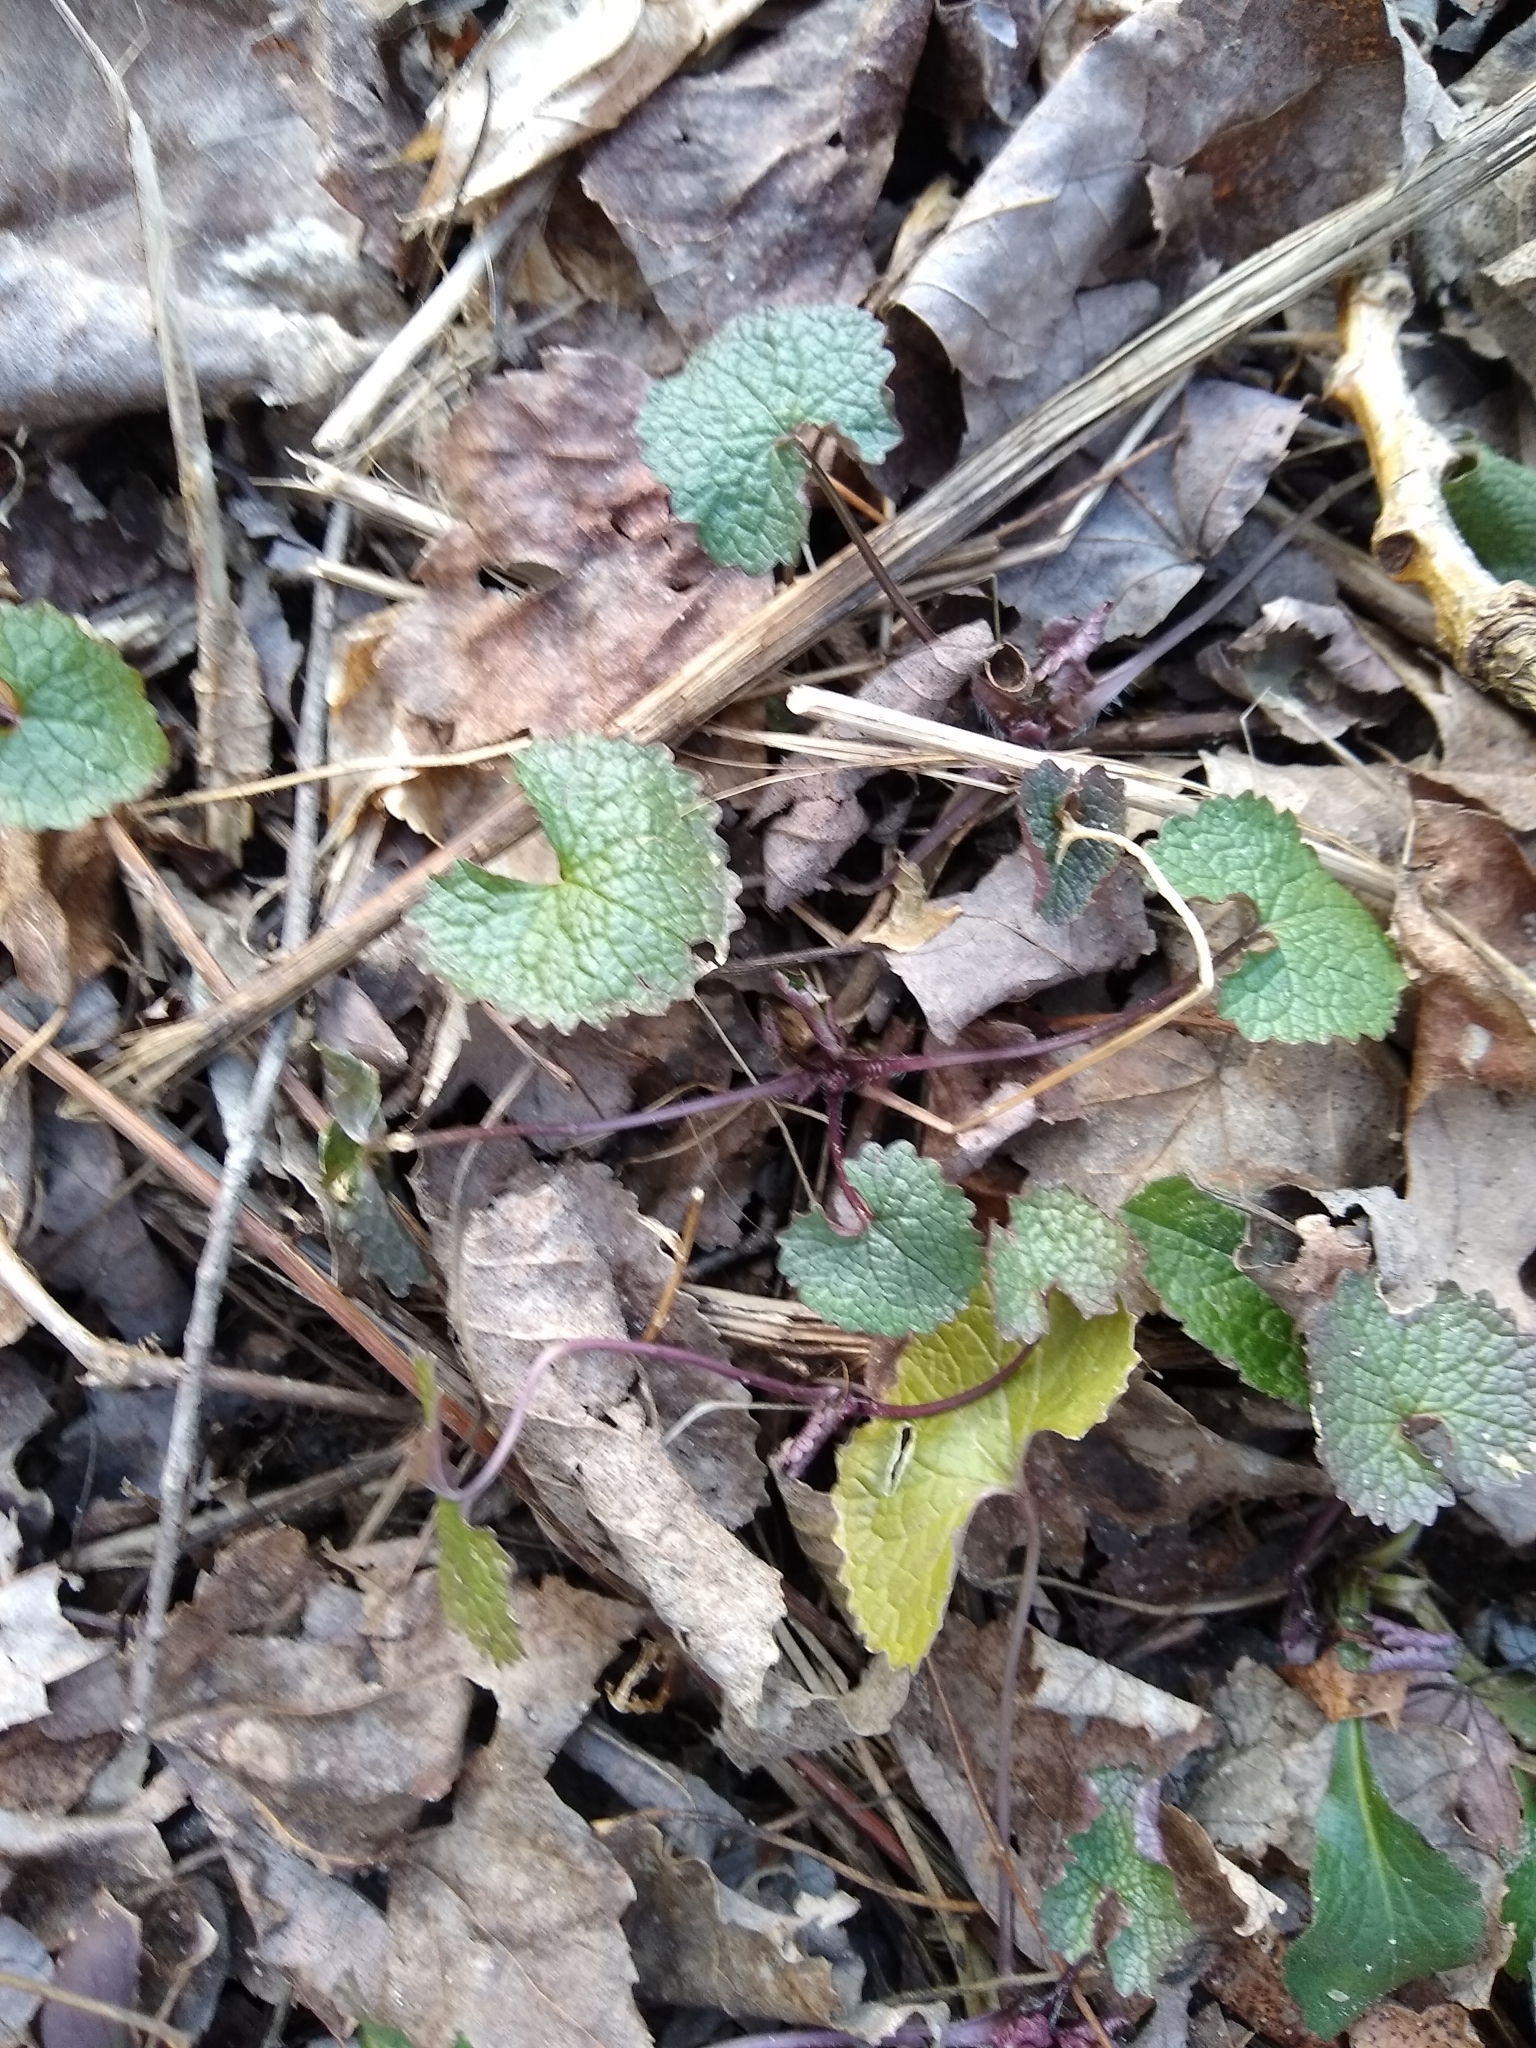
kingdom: Plantae
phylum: Tracheophyta
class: Magnoliopsida
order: Brassicales
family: Brassicaceae
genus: Alliaria
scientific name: Alliaria petiolata
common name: Garlic mustard
